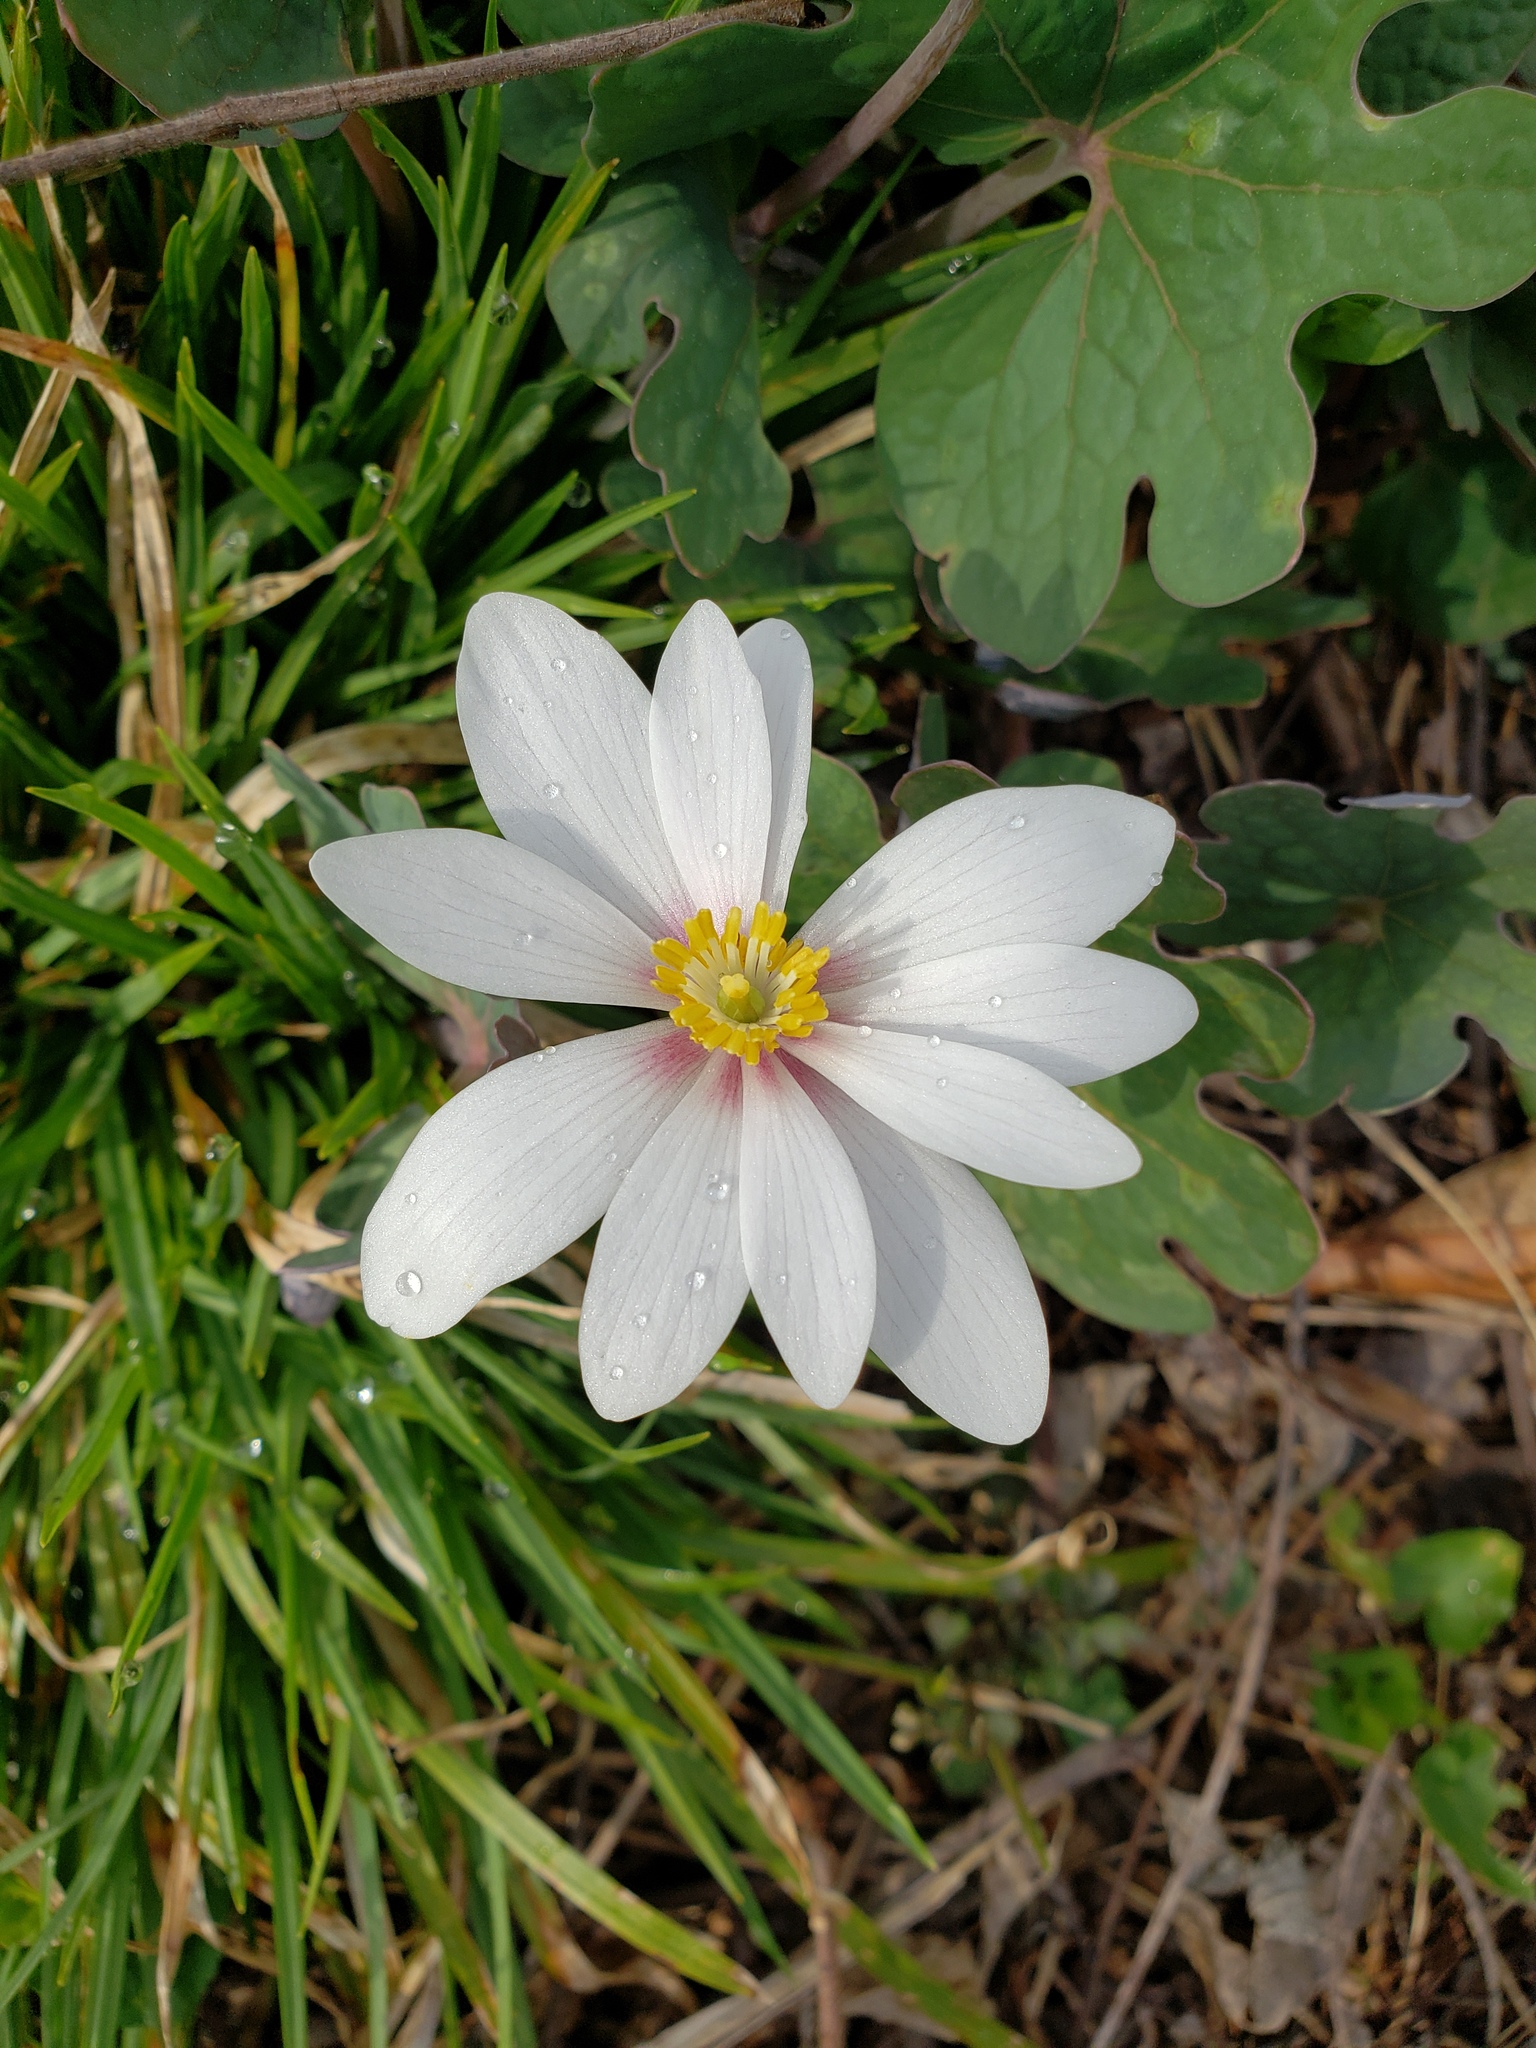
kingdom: Plantae
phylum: Tracheophyta
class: Magnoliopsida
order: Ranunculales
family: Papaveraceae
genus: Sanguinaria
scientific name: Sanguinaria canadensis
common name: Bloodroot
